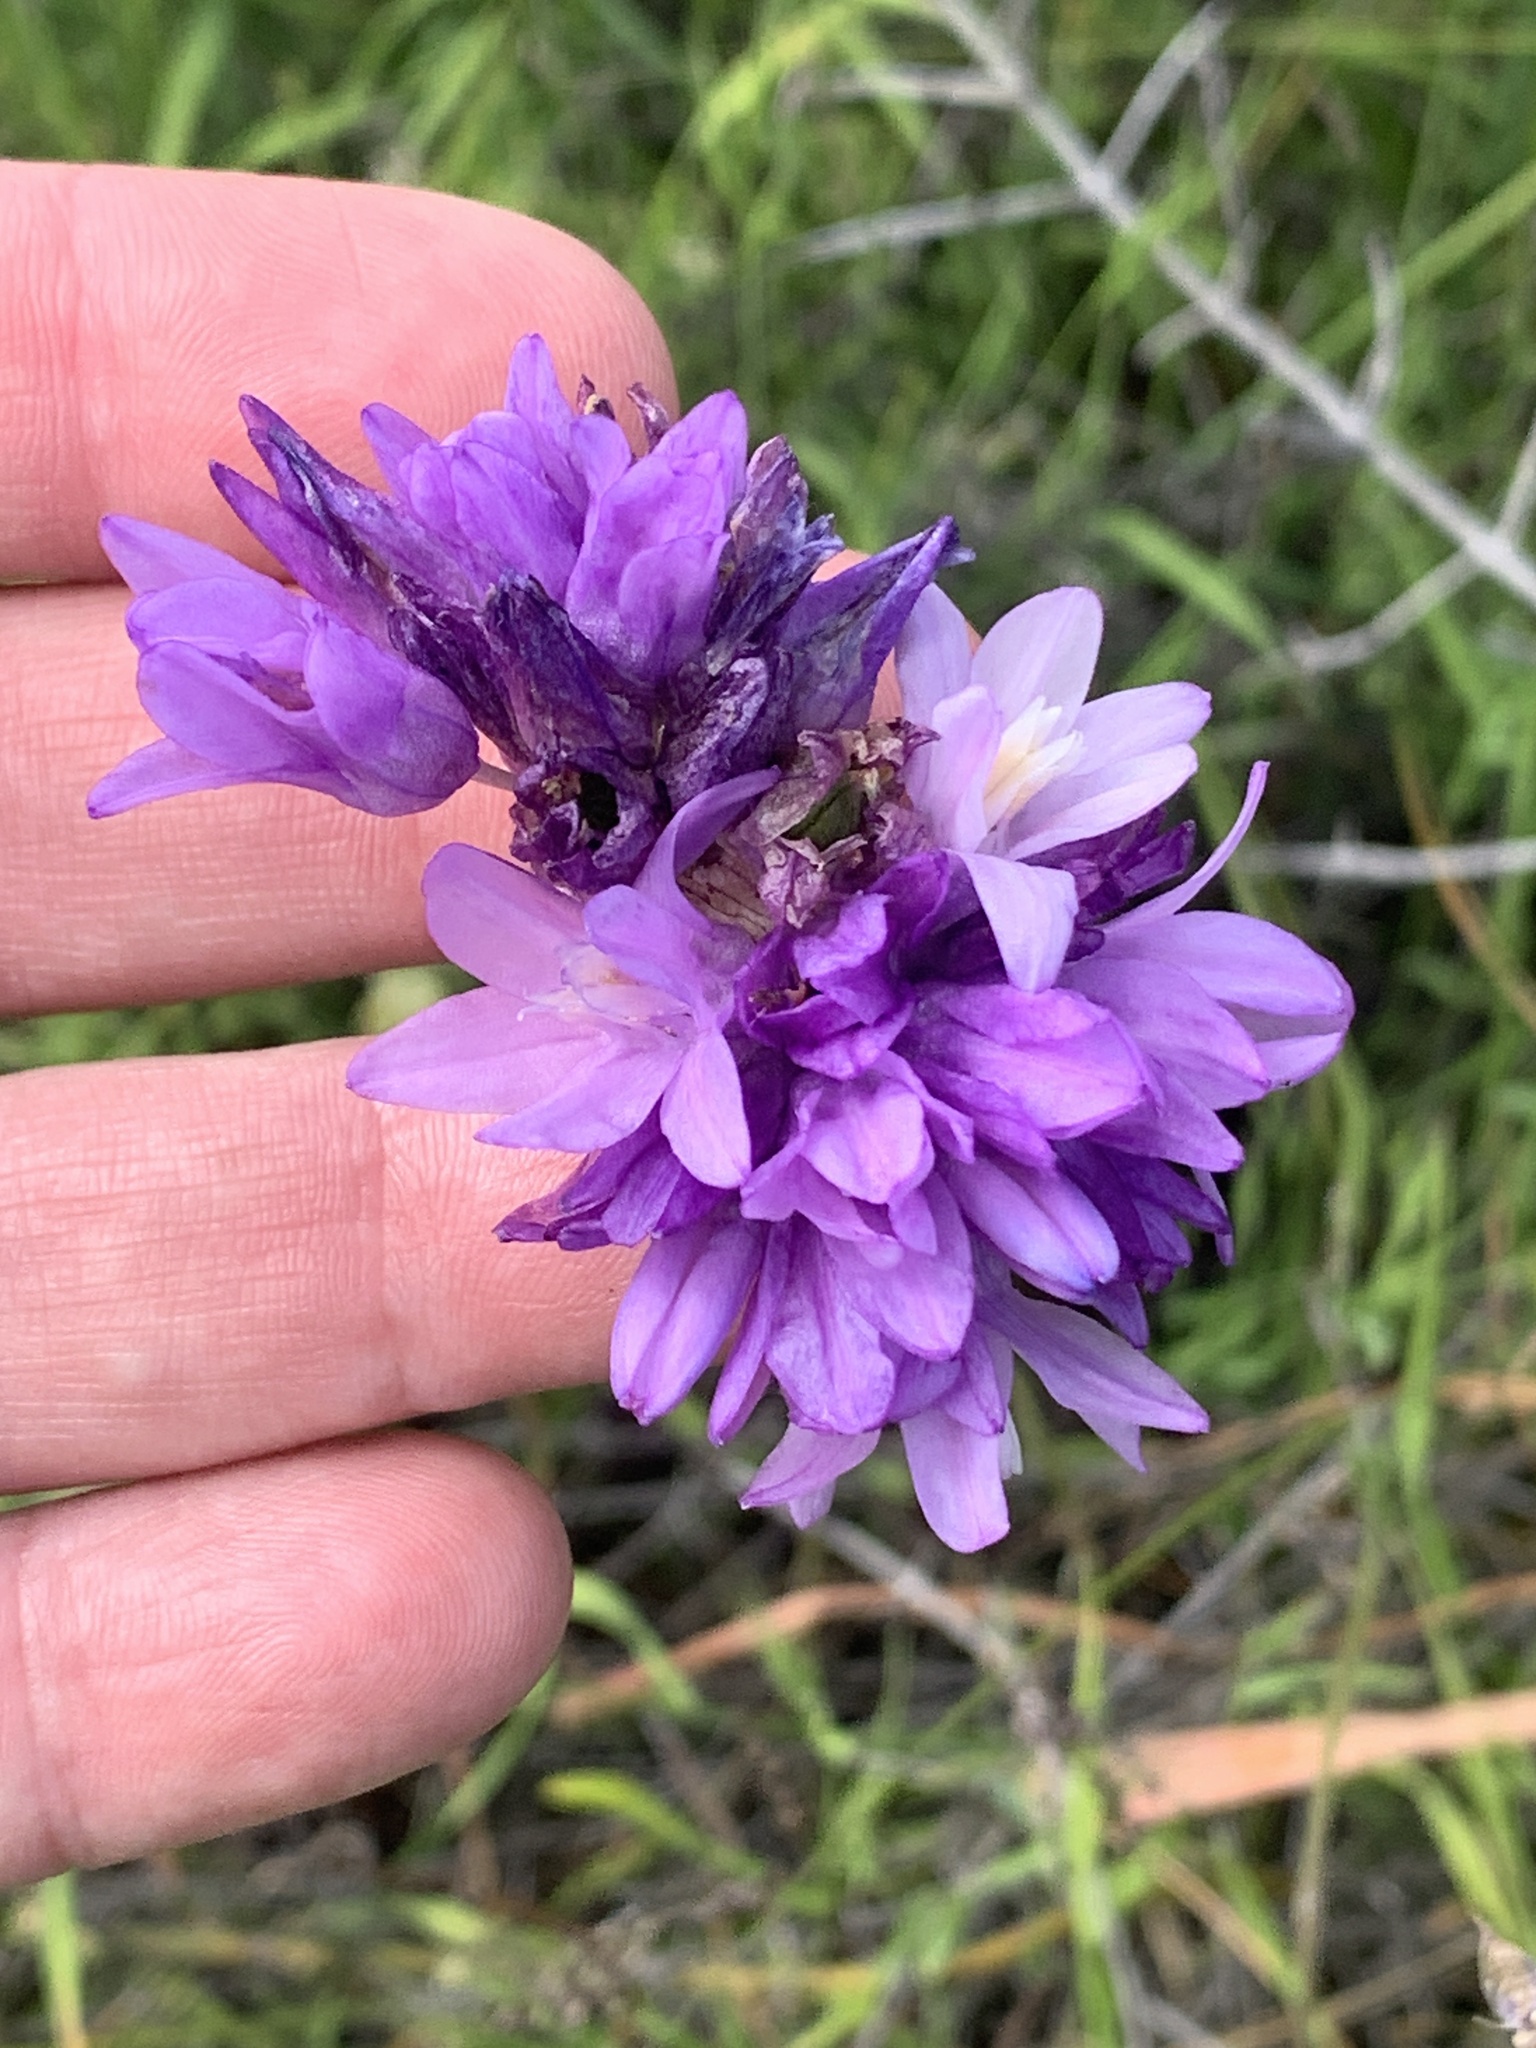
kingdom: Plantae
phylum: Tracheophyta
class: Liliopsida
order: Asparagales
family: Asparagaceae
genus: Dipterostemon
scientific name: Dipterostemon capitatus
